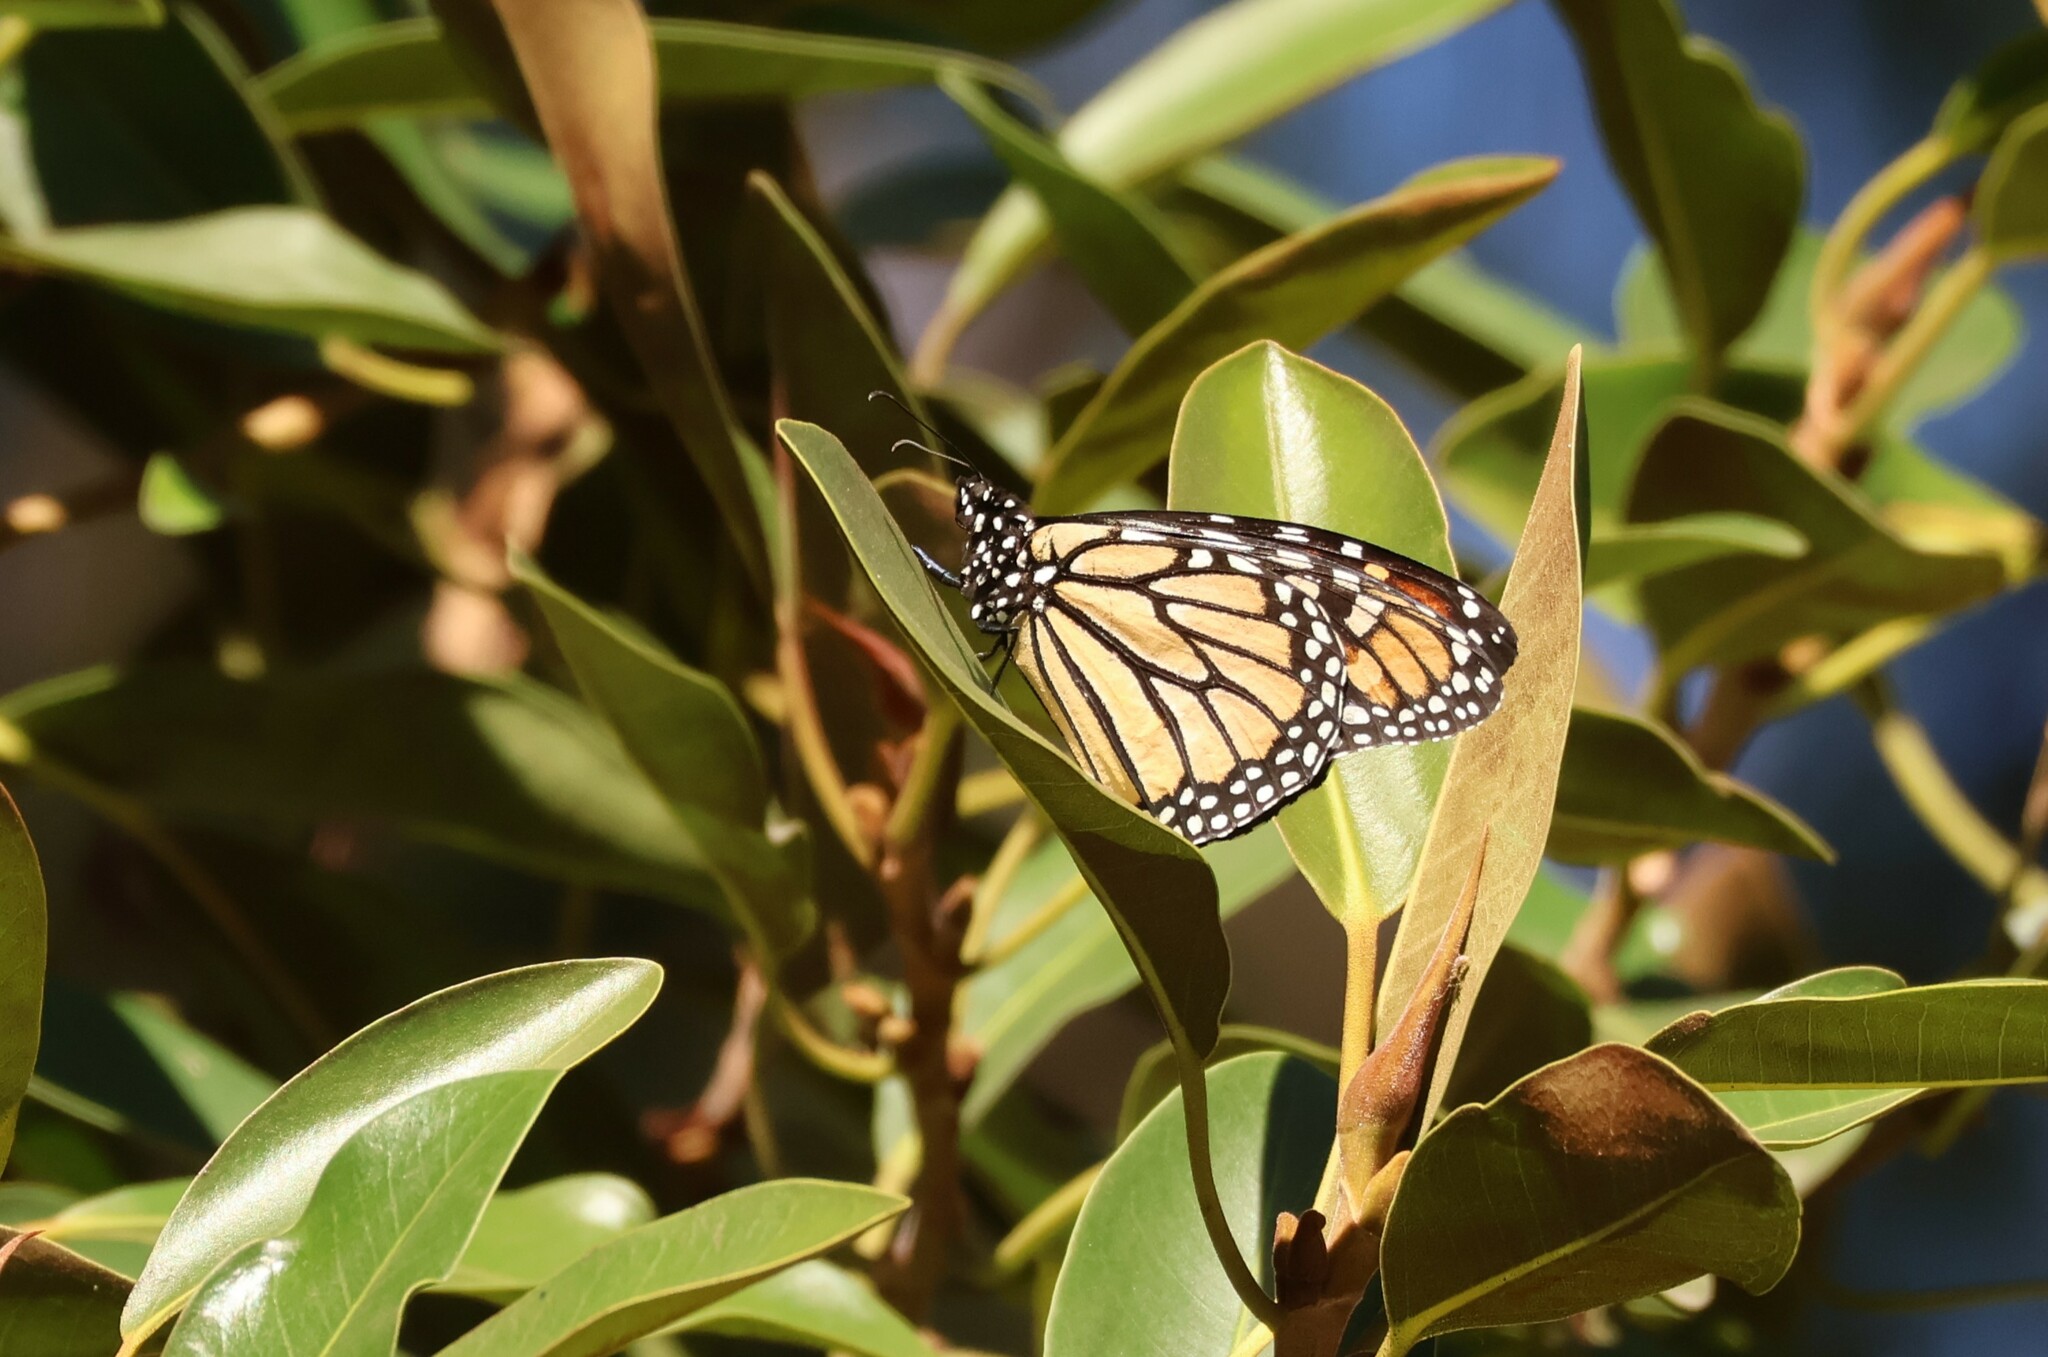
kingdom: Animalia
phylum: Arthropoda
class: Insecta
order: Lepidoptera
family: Nymphalidae
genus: Danaus
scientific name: Danaus plexippus
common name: Monarch
